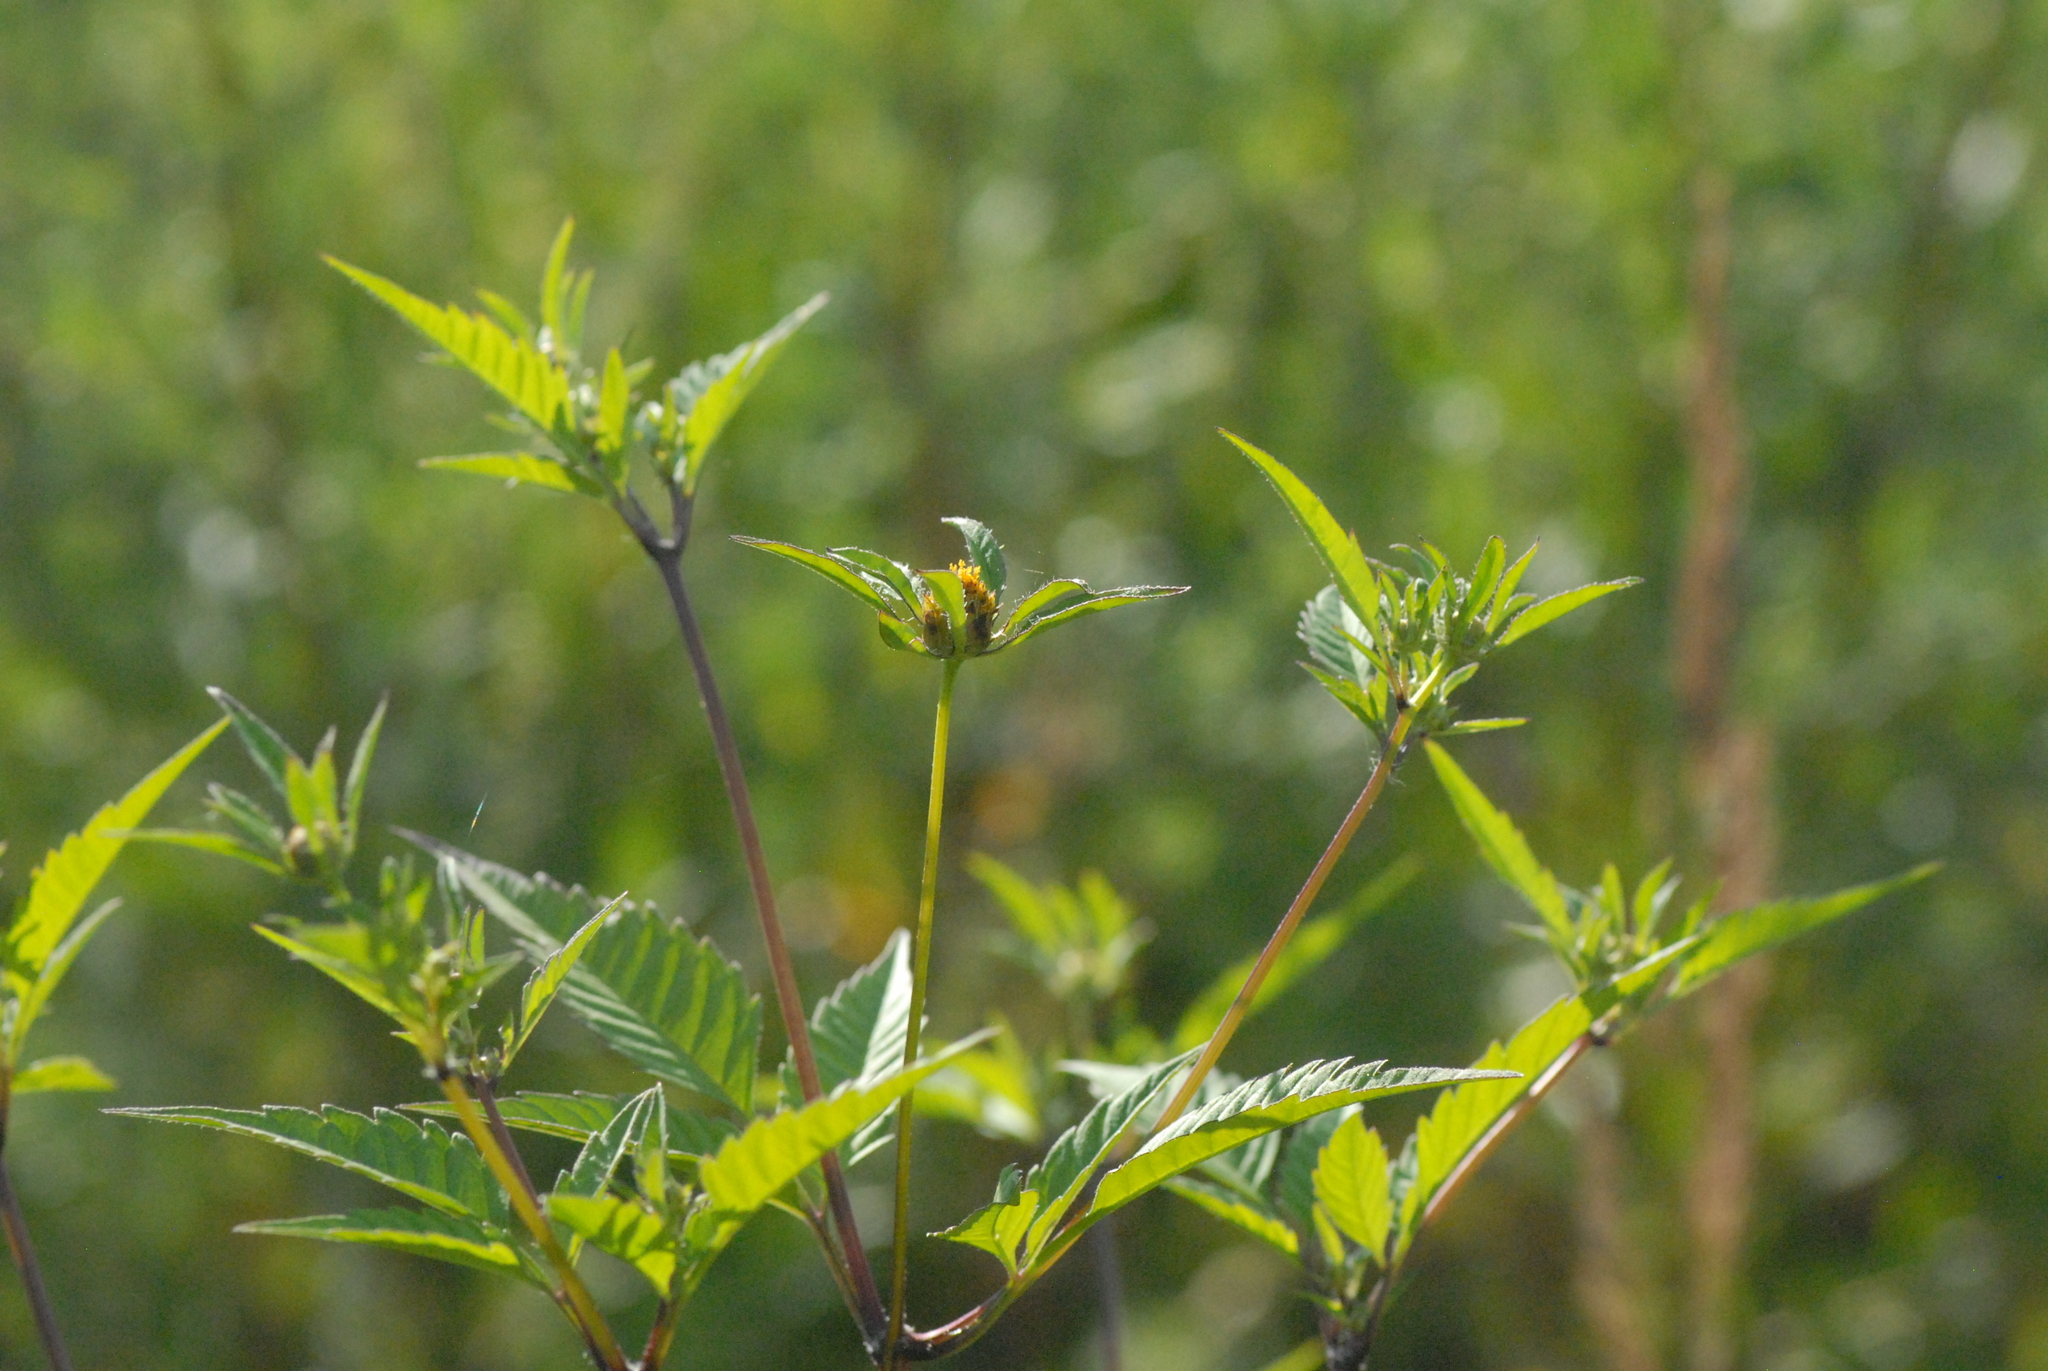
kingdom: Plantae
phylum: Tracheophyta
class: Magnoliopsida
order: Asterales
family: Asteraceae
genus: Bidens
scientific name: Bidens frondosa
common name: Beggarticks
